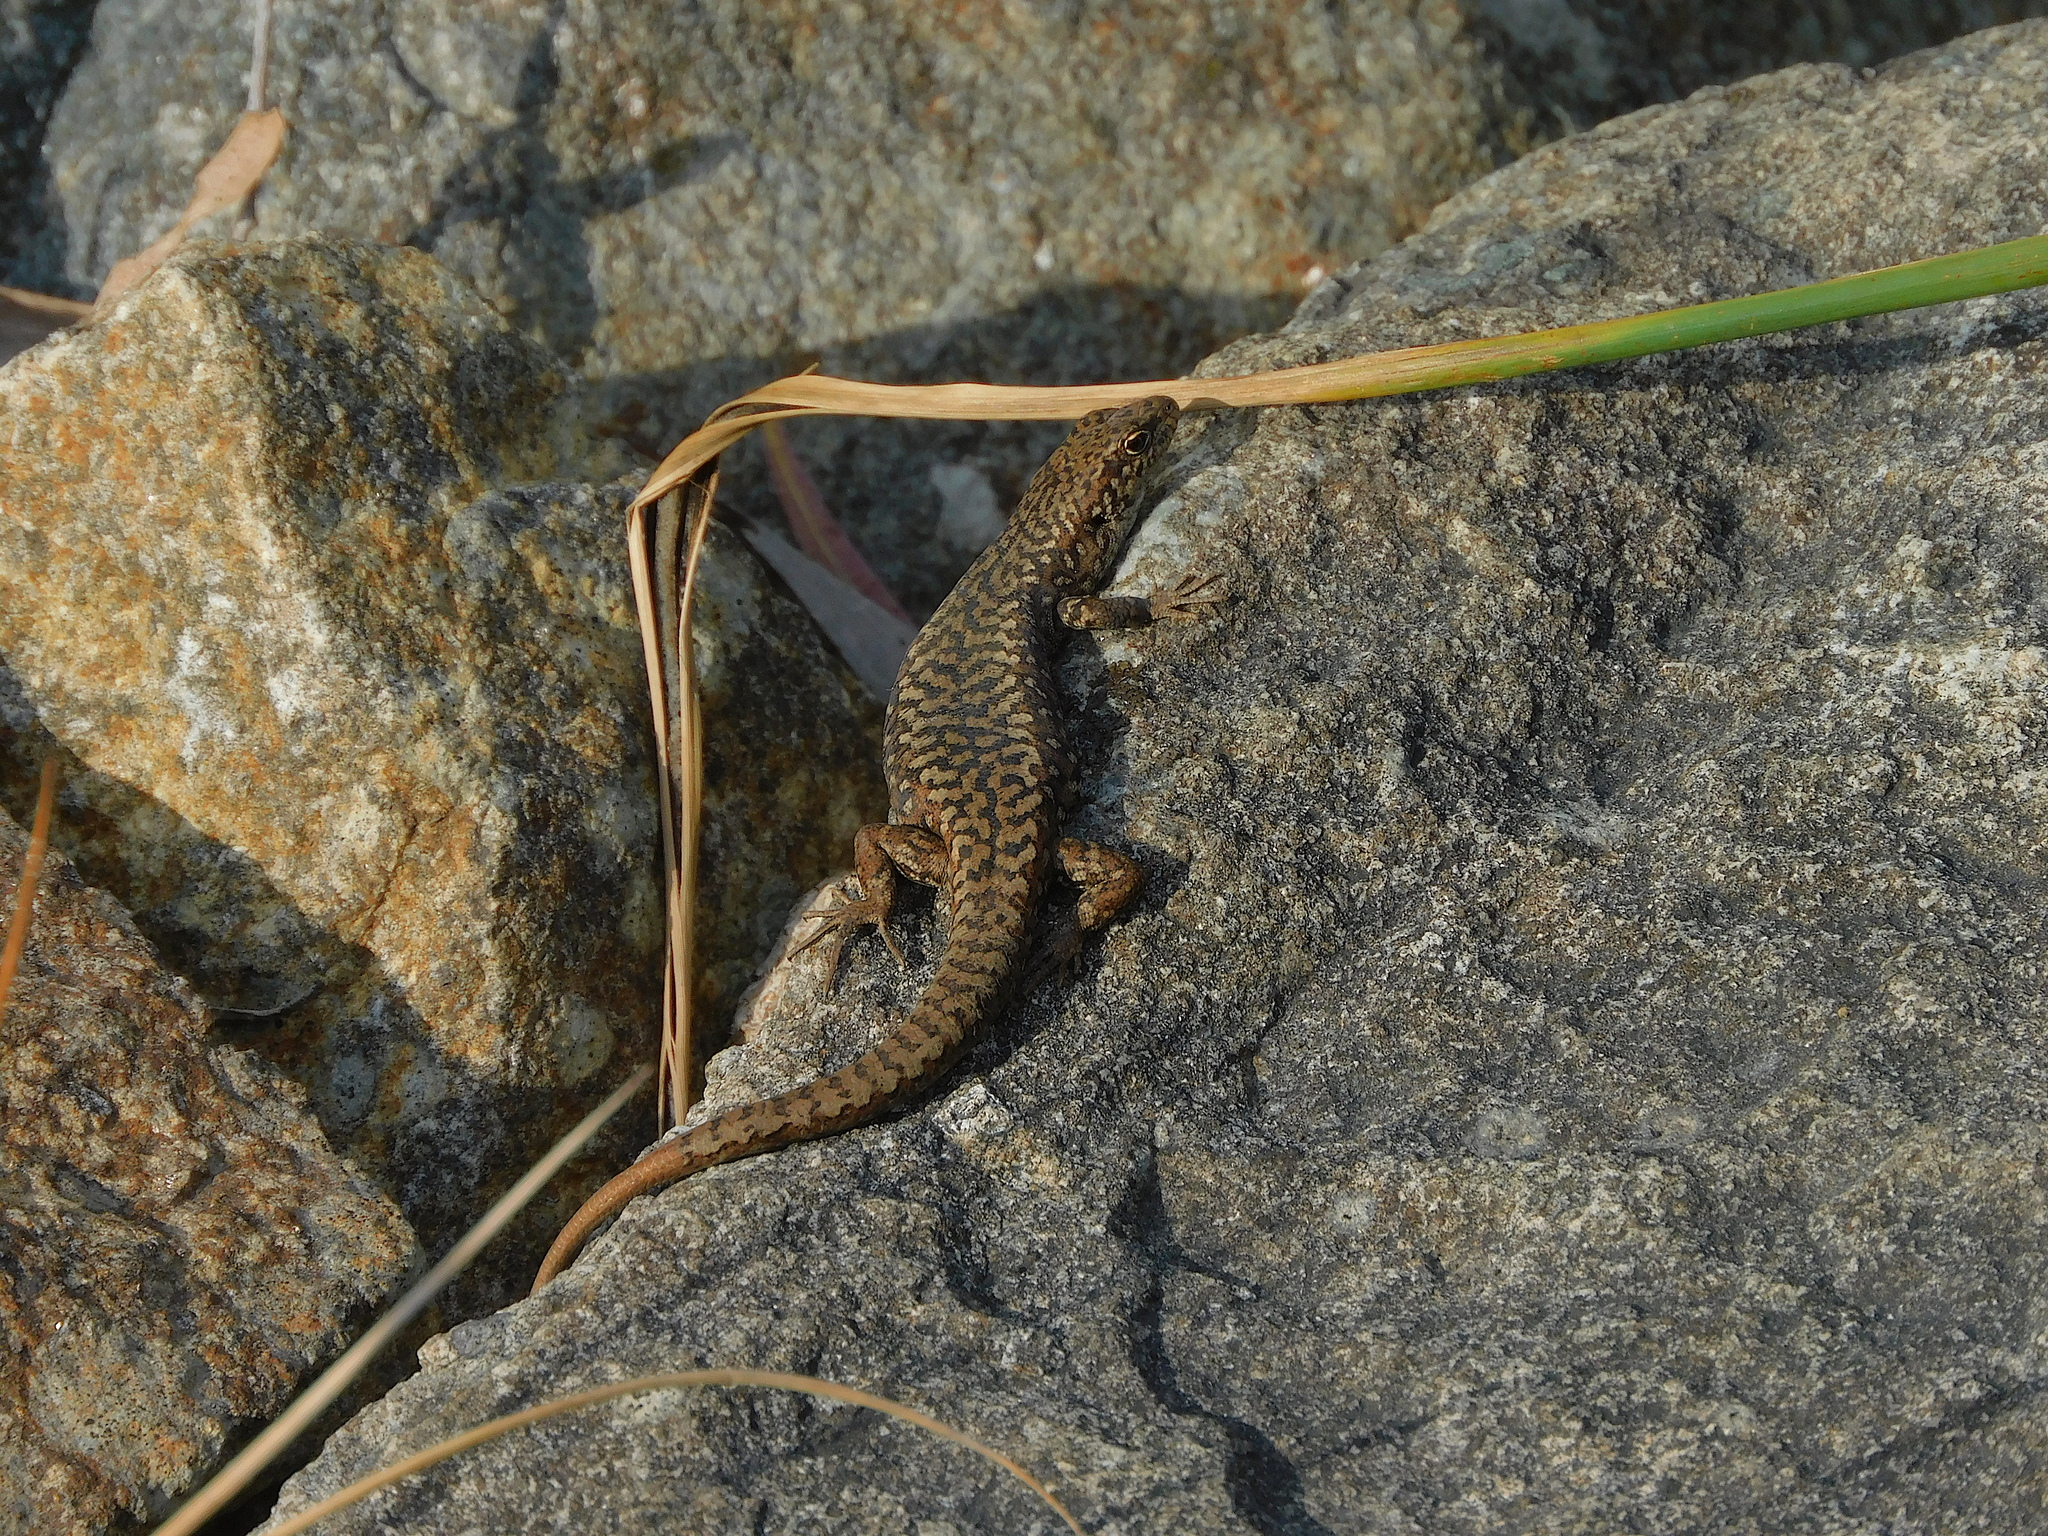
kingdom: Animalia
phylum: Chordata
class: Squamata
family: Scincidae
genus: Carinascincus
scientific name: Carinascincus ocellatus
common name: Ocellated cool-skink
